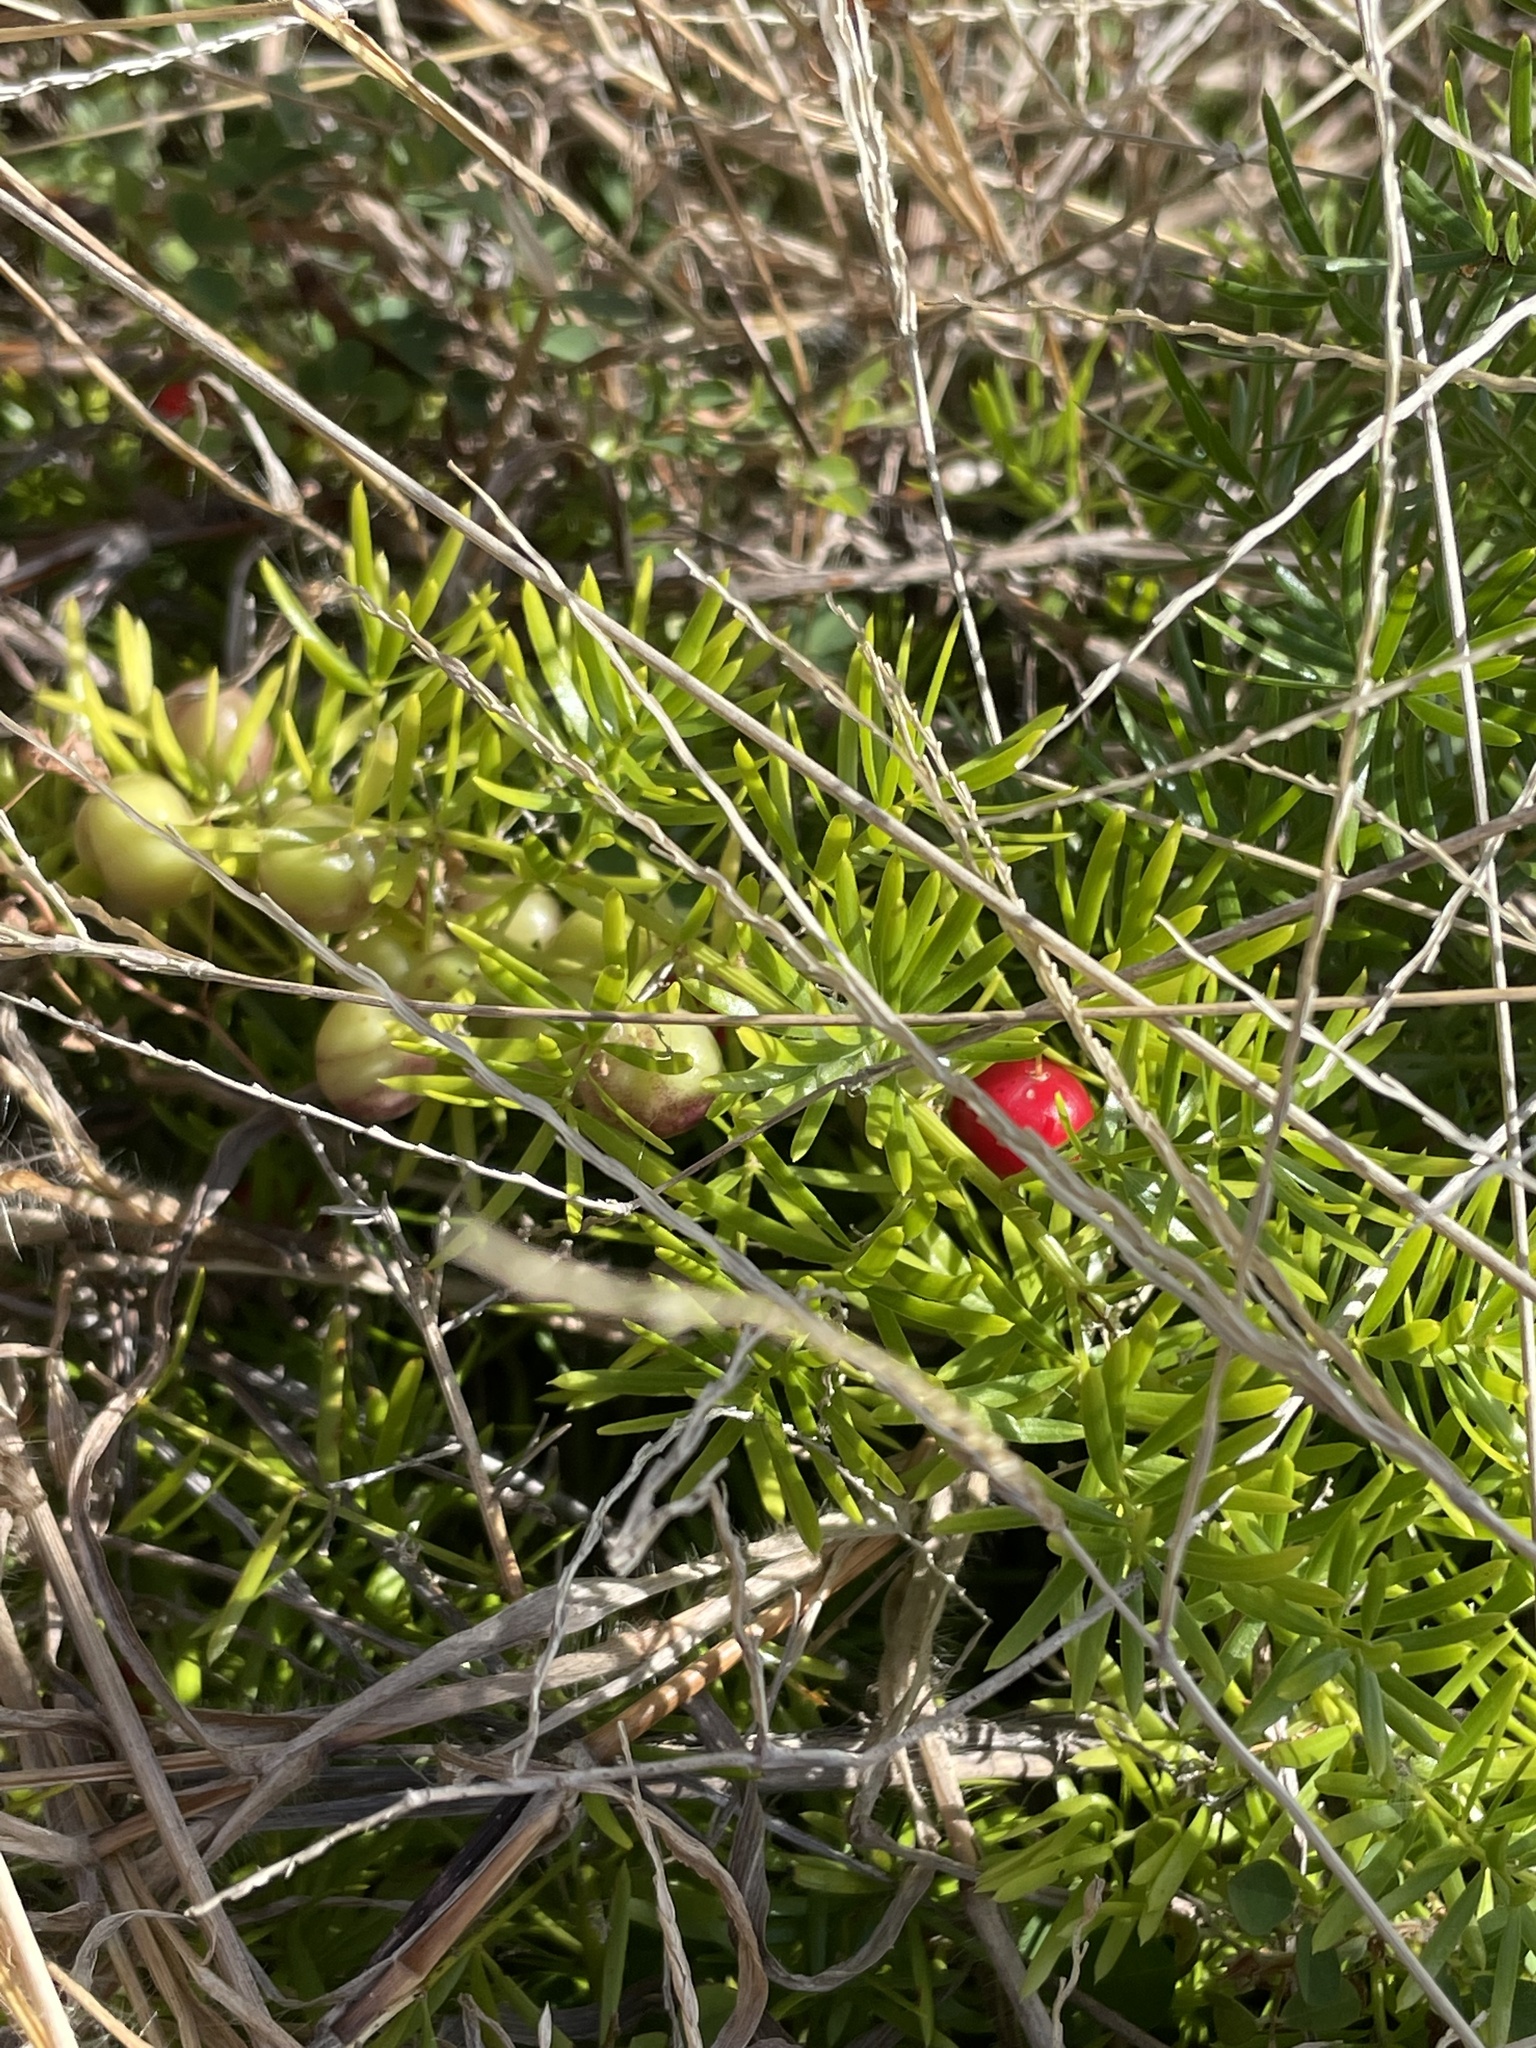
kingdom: Plantae
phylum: Tracheophyta
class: Liliopsida
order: Asparagales
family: Asparagaceae
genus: Asparagus
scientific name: Asparagus aethiopicus
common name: Sprenger's asparagus fern
